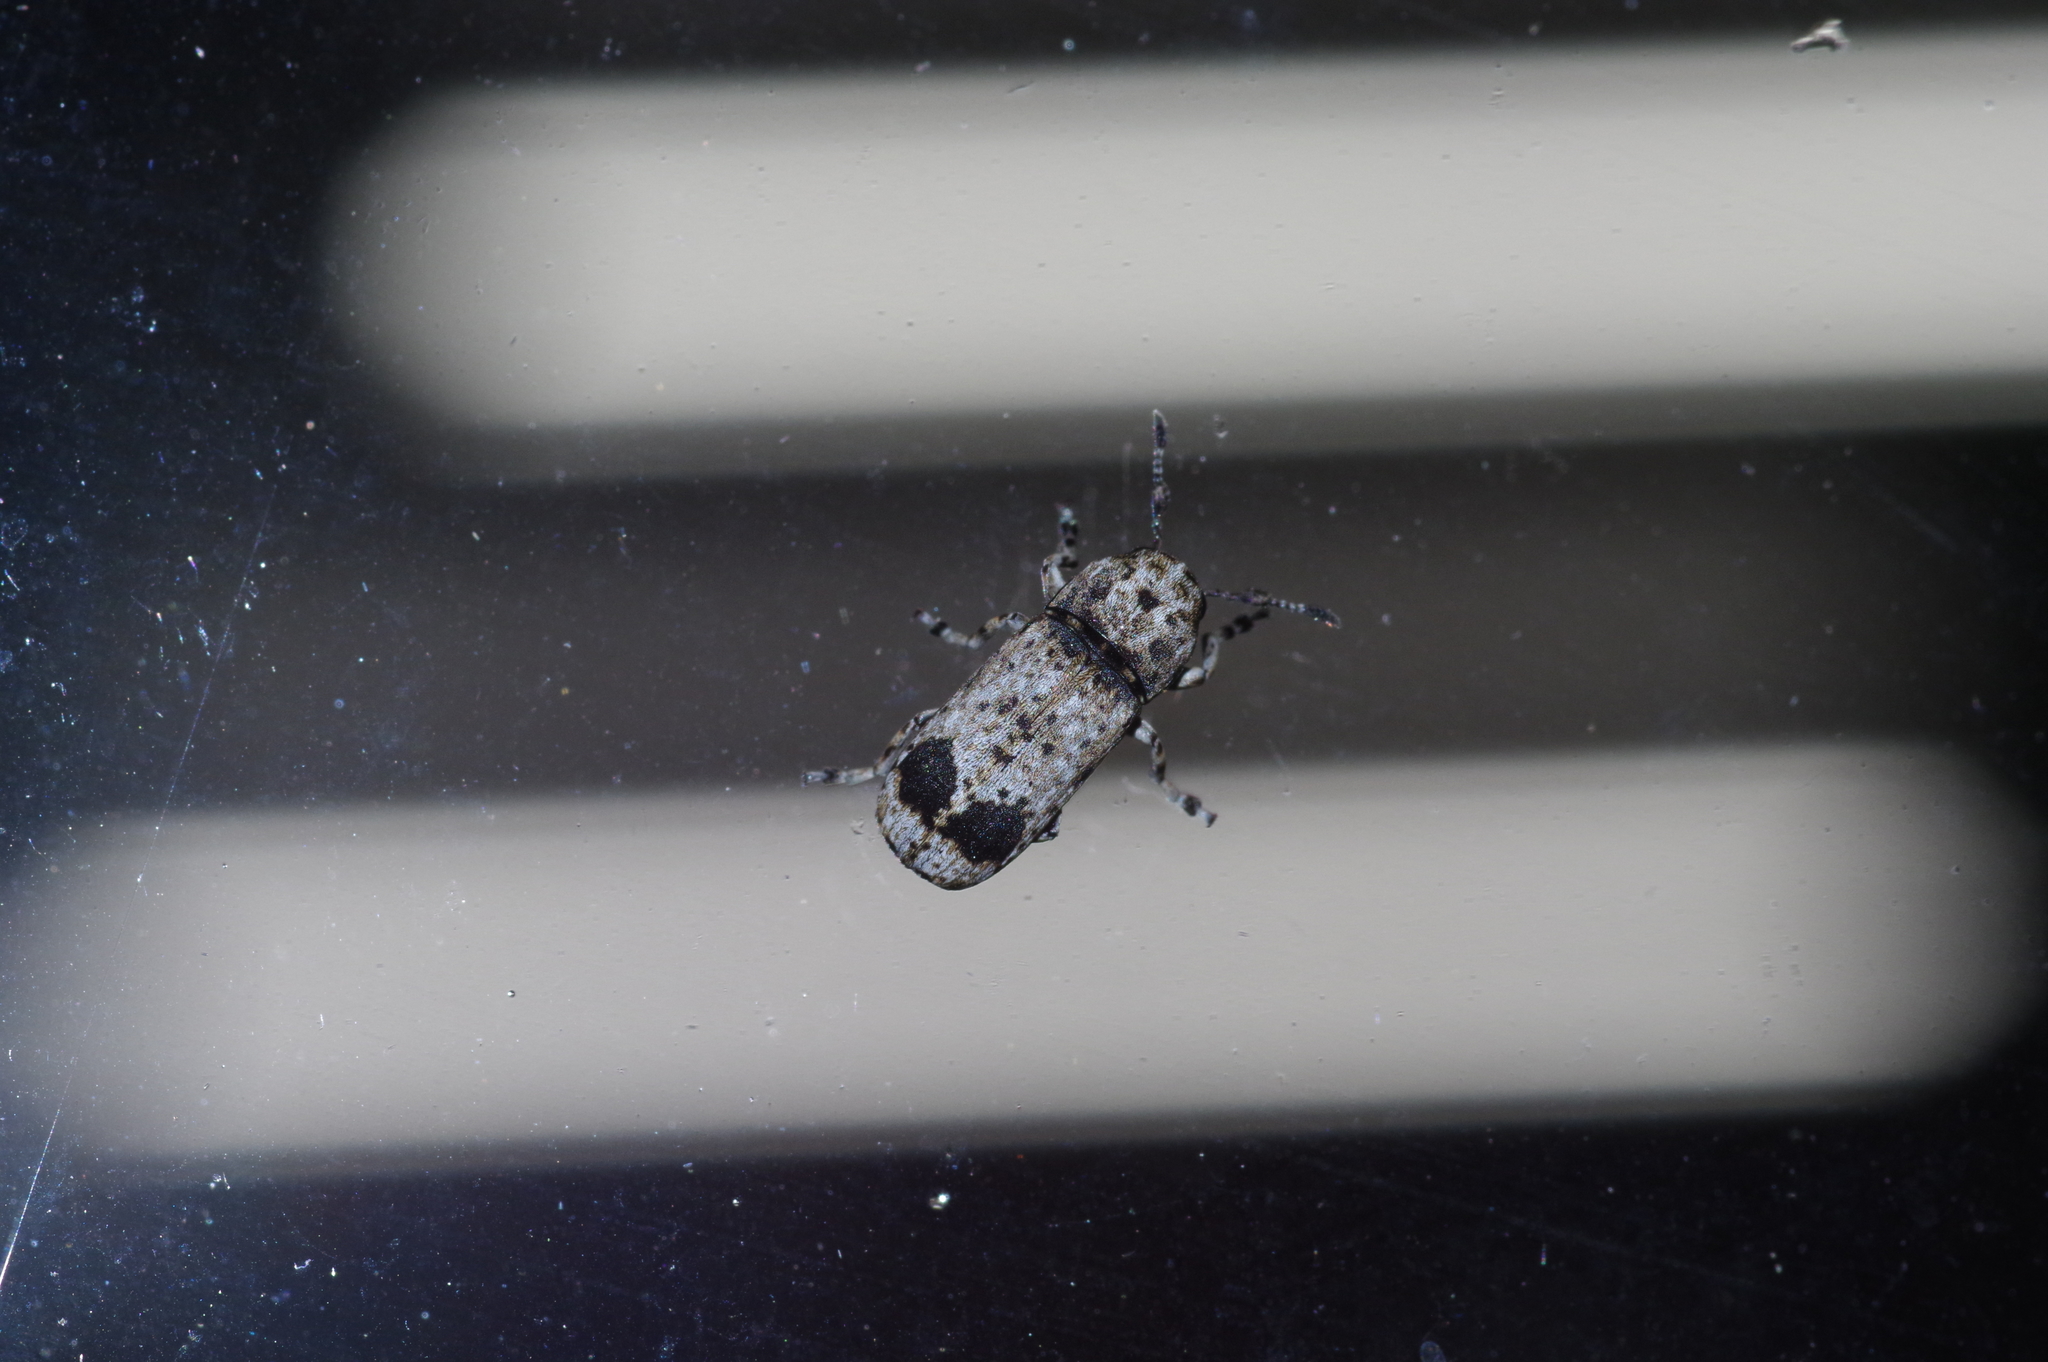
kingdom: Animalia
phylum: Arthropoda
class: Insecta
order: Coleoptera
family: Anthribidae
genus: Ozotomerus
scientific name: Ozotomerus nigromaculatus
